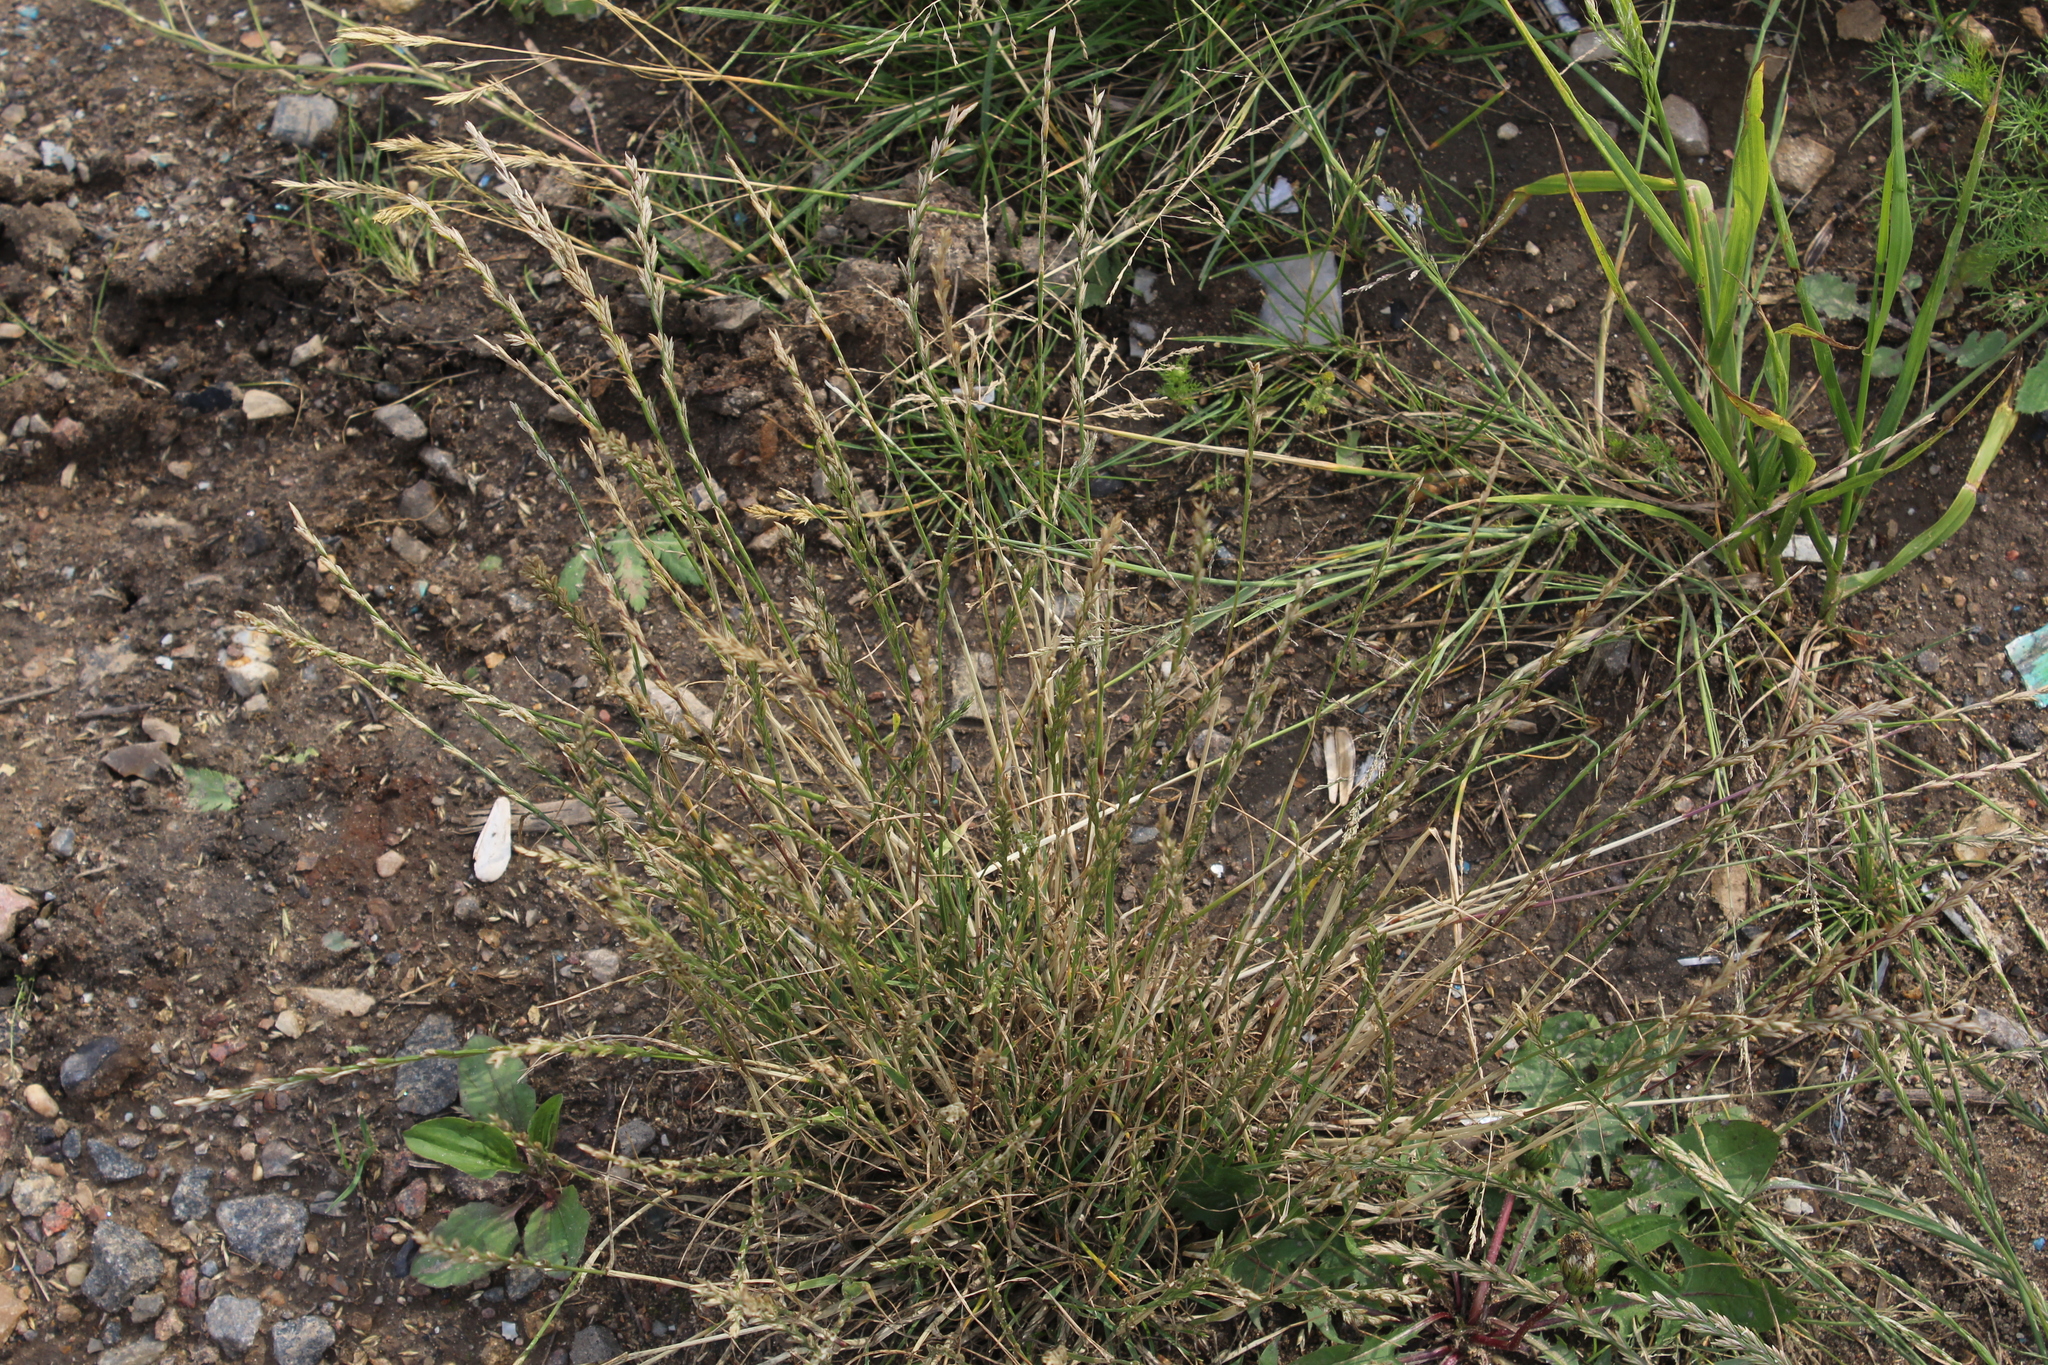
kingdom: Plantae
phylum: Tracheophyta
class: Liliopsida
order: Poales
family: Poaceae
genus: Lolium
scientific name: Lolium perenne
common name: Perennial ryegrass
